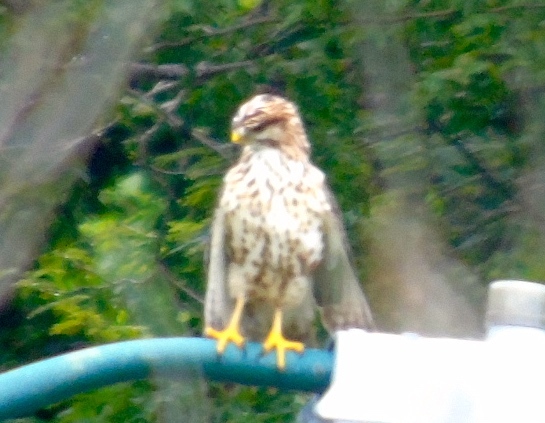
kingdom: Animalia
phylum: Chordata
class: Aves
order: Accipitriformes
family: Accipitridae
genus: Buteo
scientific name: Buteo nitidus
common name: Grey-lined hawk
